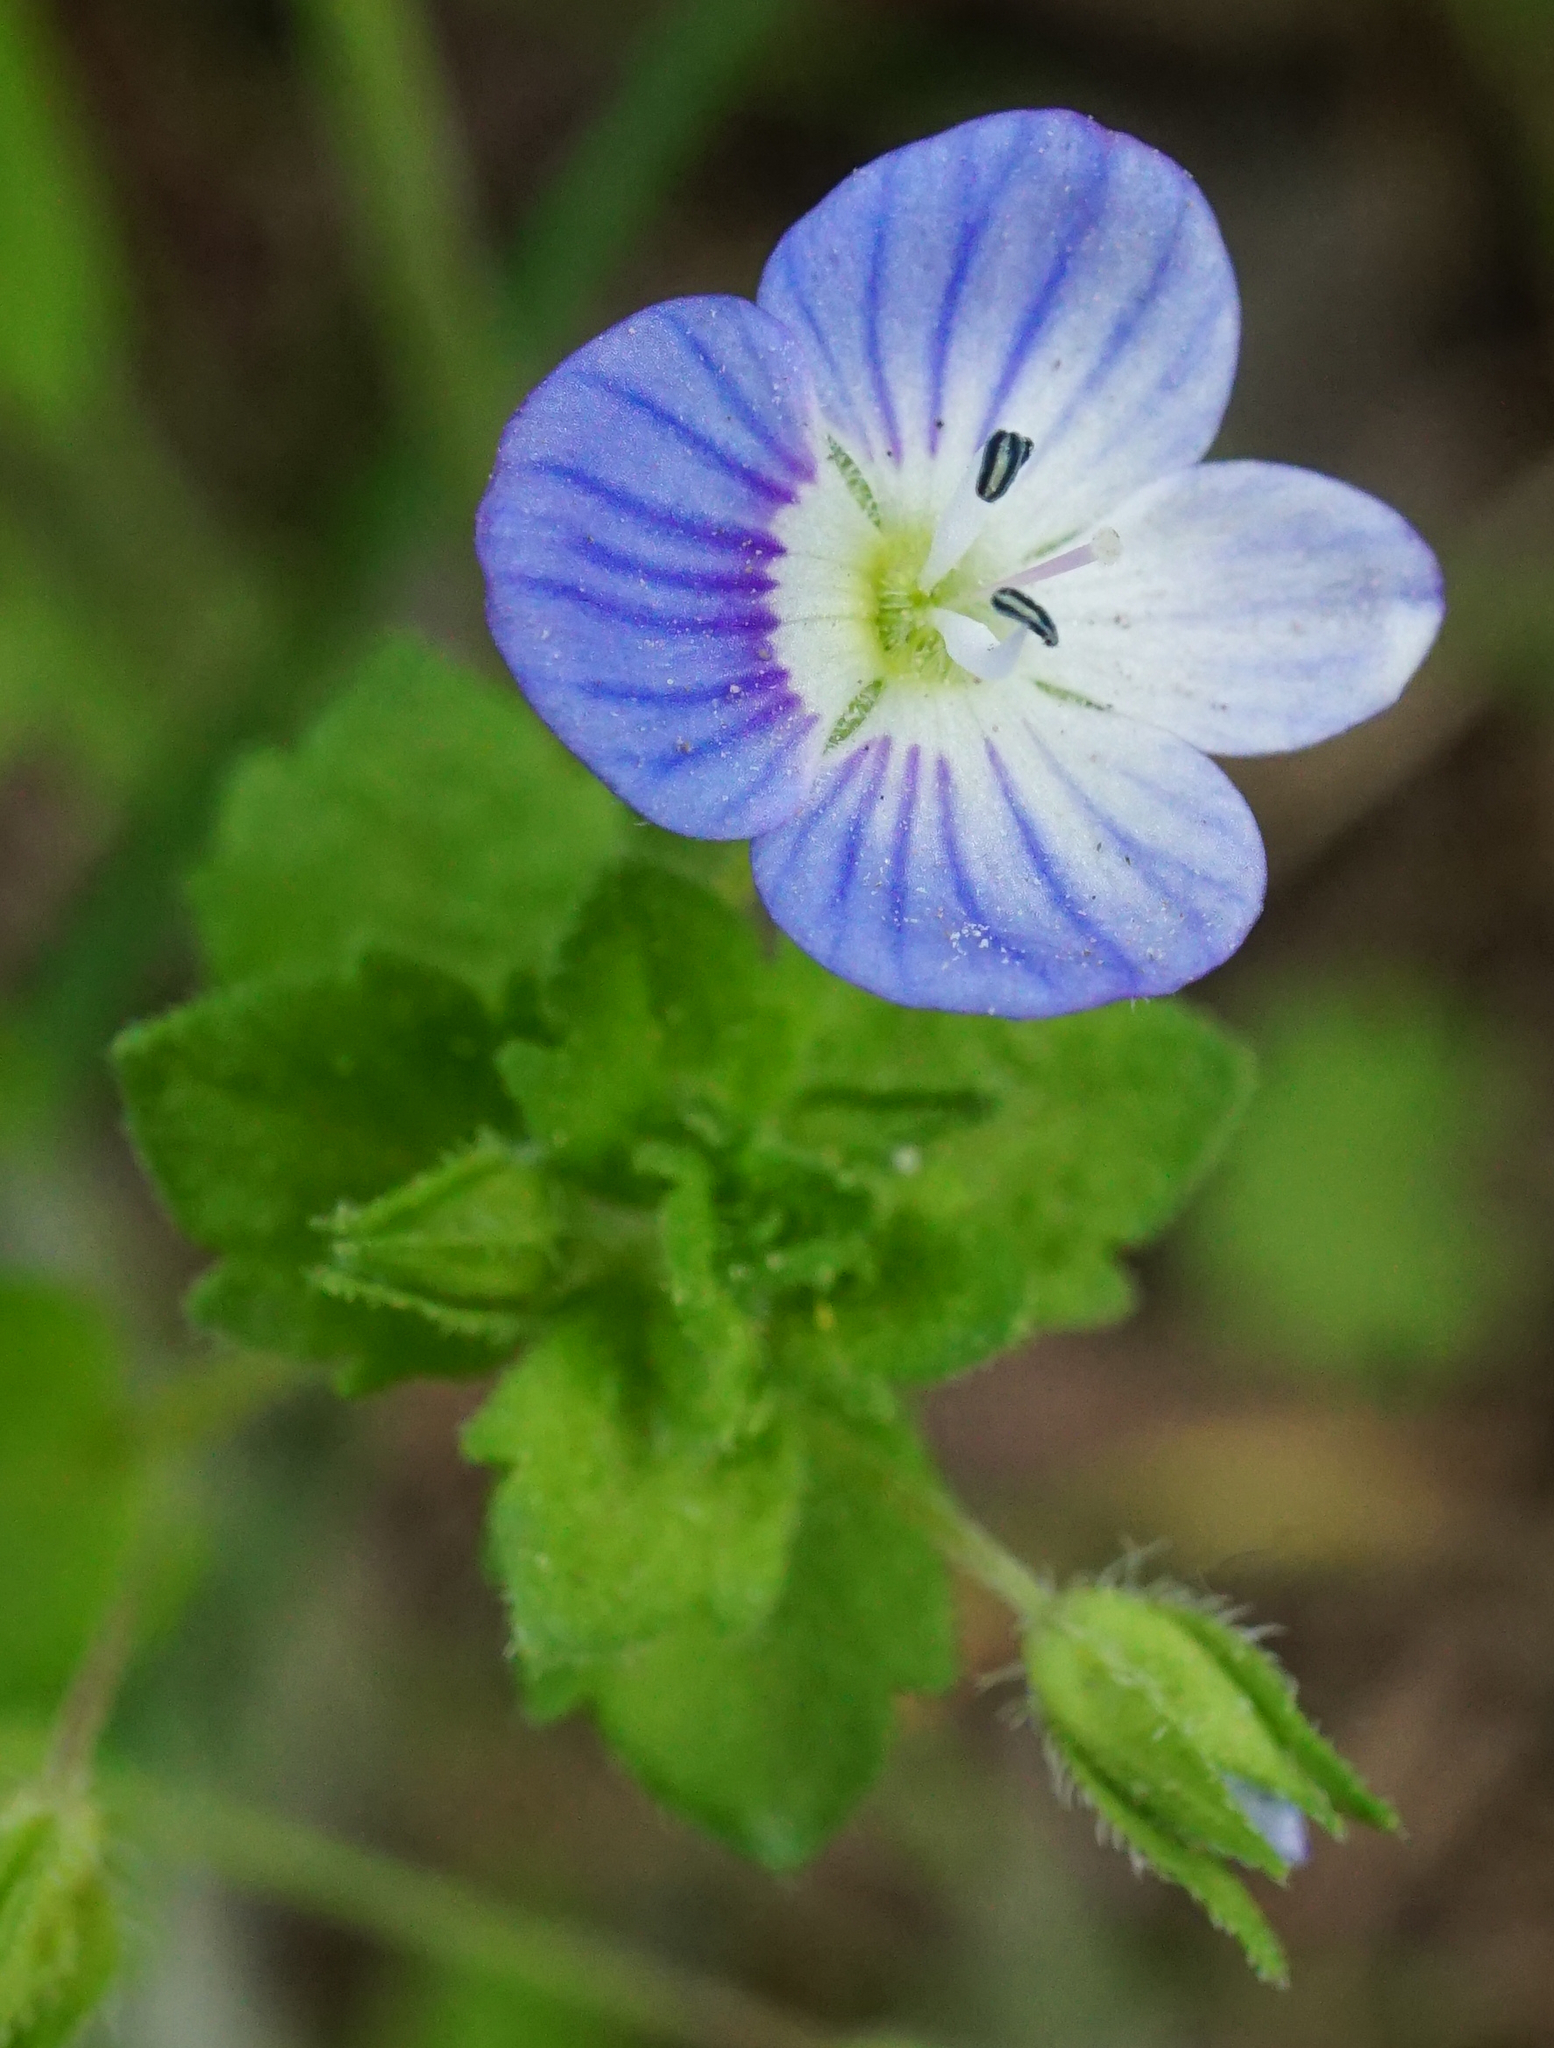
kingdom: Plantae
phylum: Tracheophyta
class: Magnoliopsida
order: Lamiales
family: Plantaginaceae
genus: Veronica
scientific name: Veronica persica
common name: Common field-speedwell
